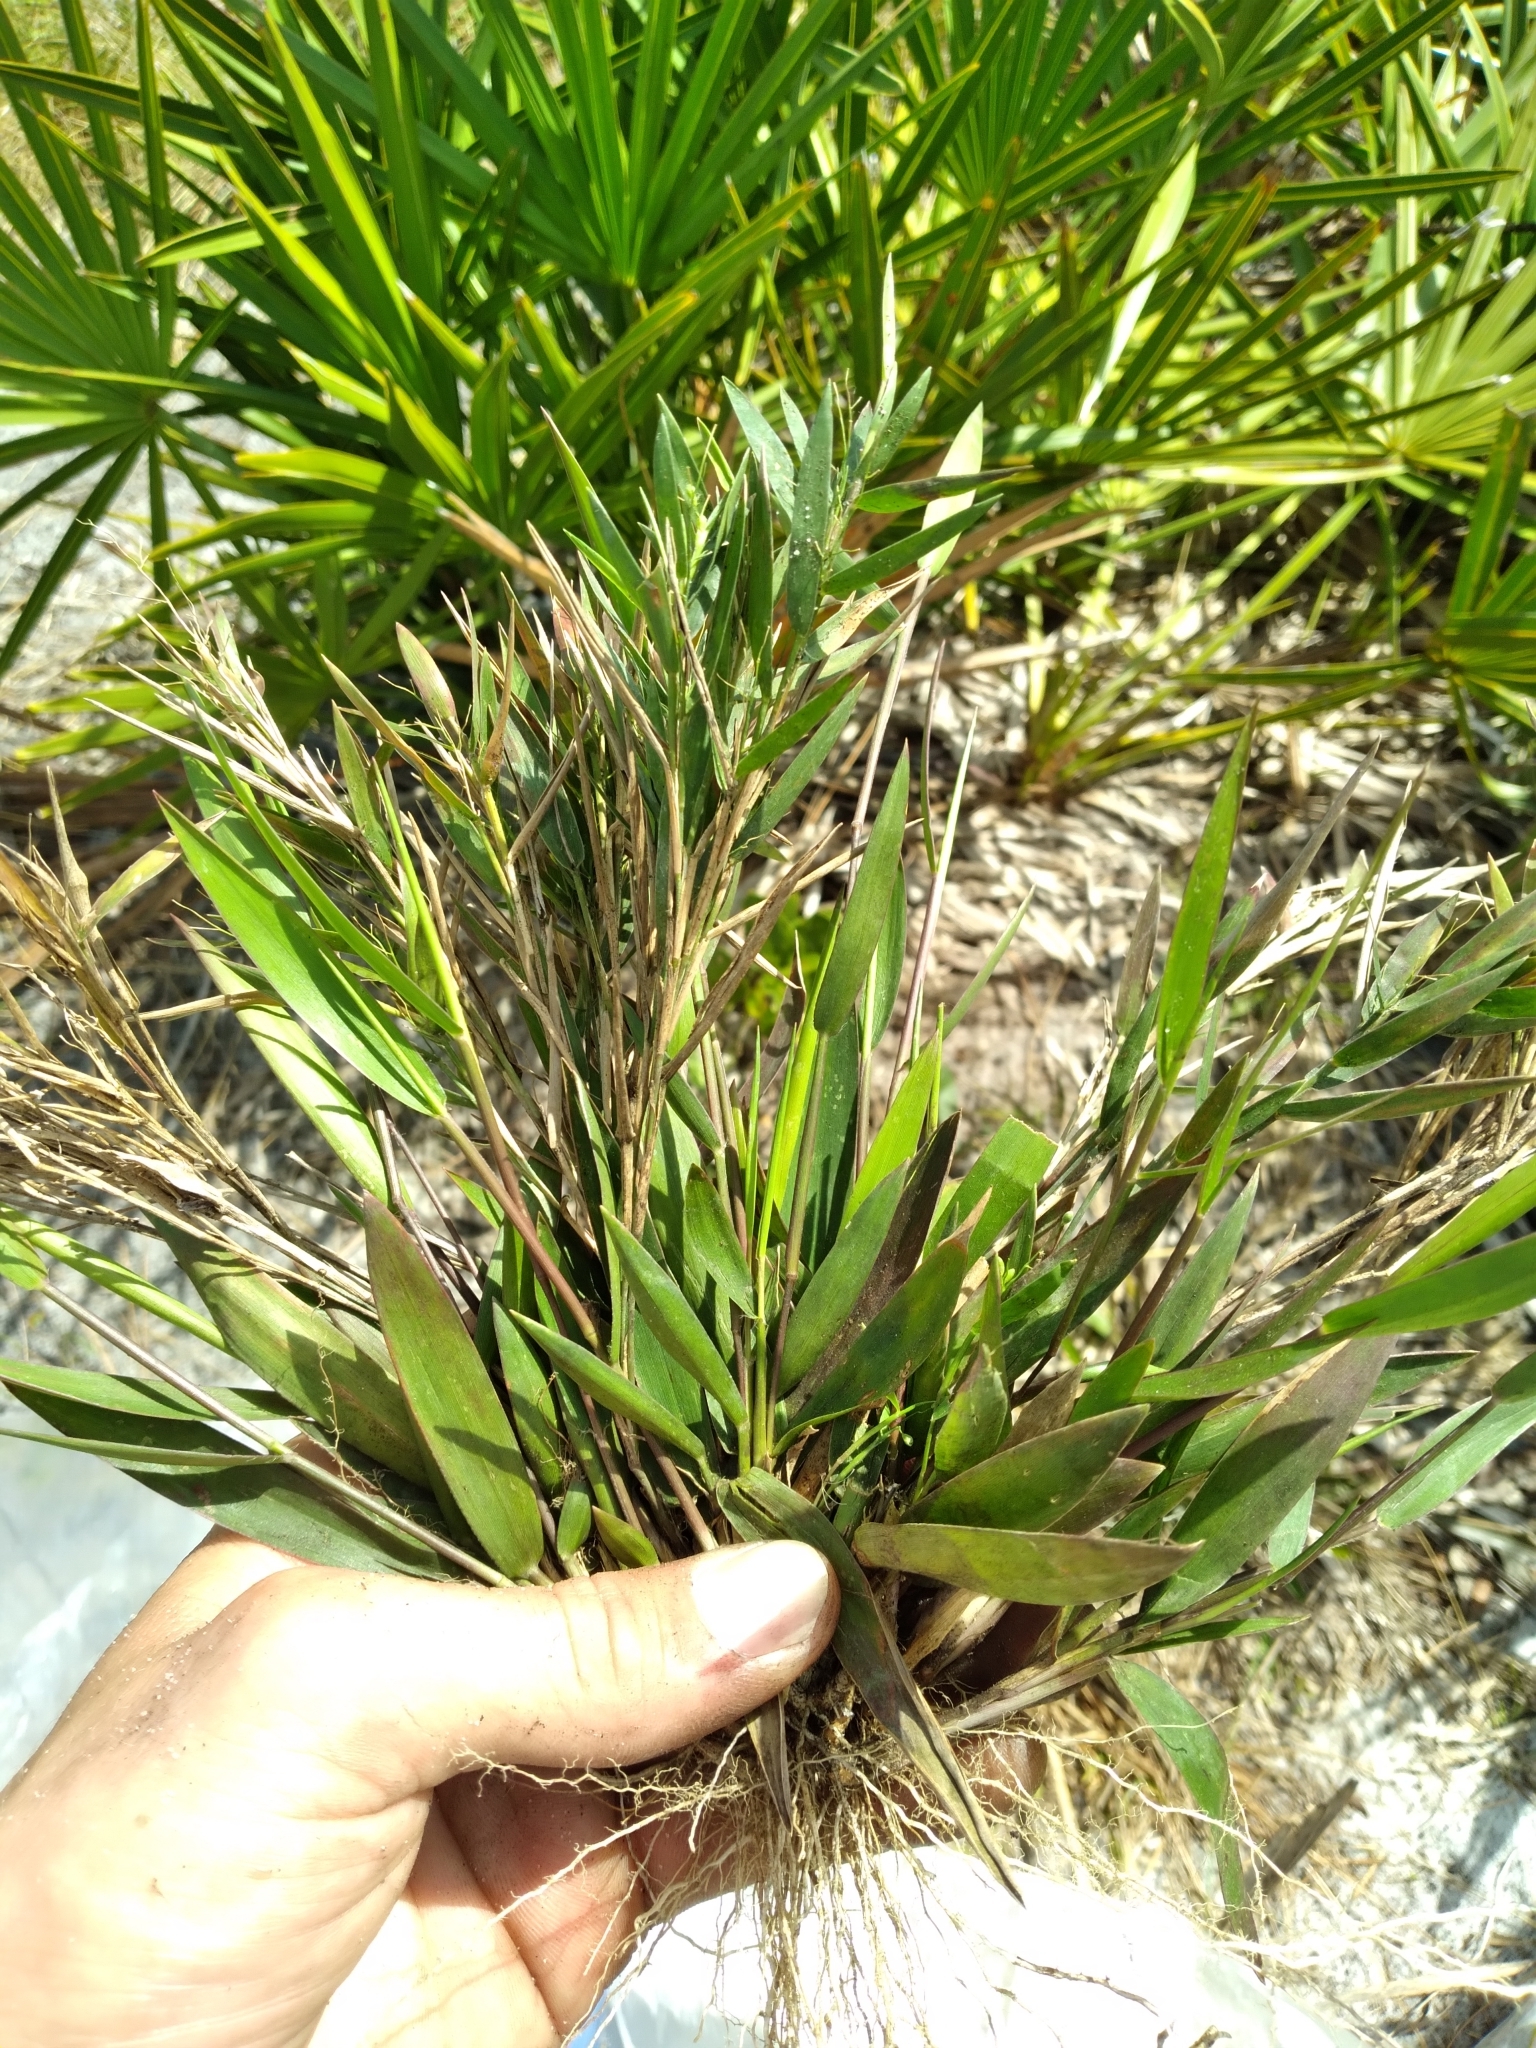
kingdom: Plantae
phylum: Tracheophyta
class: Liliopsida
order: Poales
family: Poaceae
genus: Dichanthelium
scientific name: Dichanthelium webberianum
